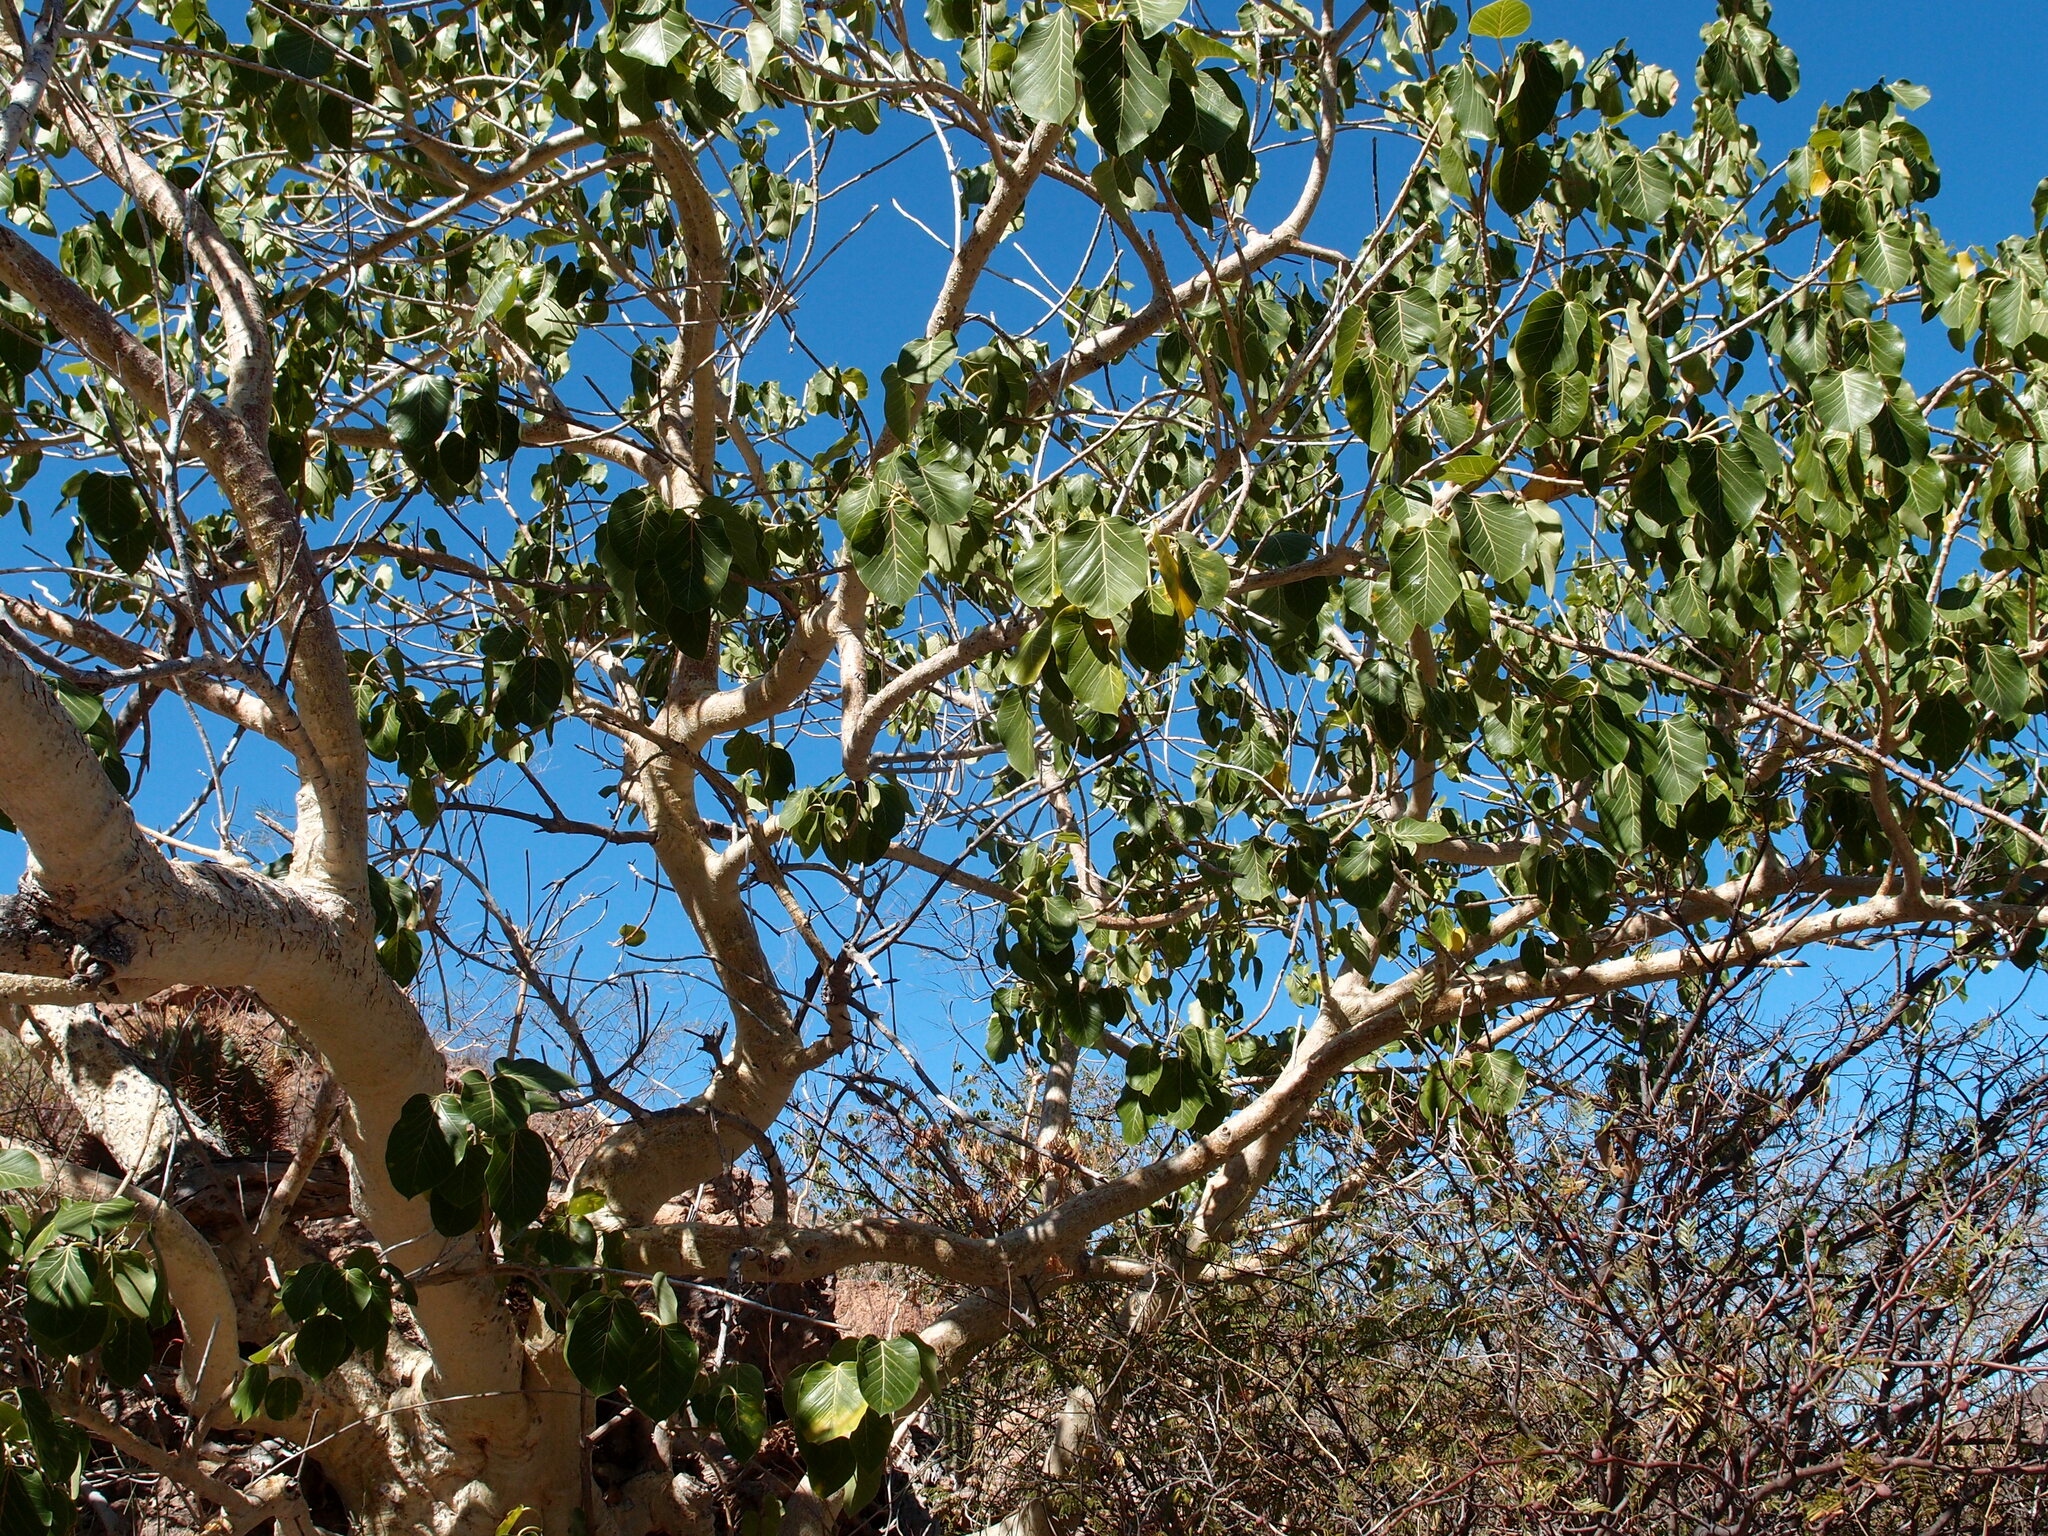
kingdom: Plantae
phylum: Tracheophyta
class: Magnoliopsida
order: Rosales
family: Moraceae
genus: Ficus
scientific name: Ficus petiolaris
